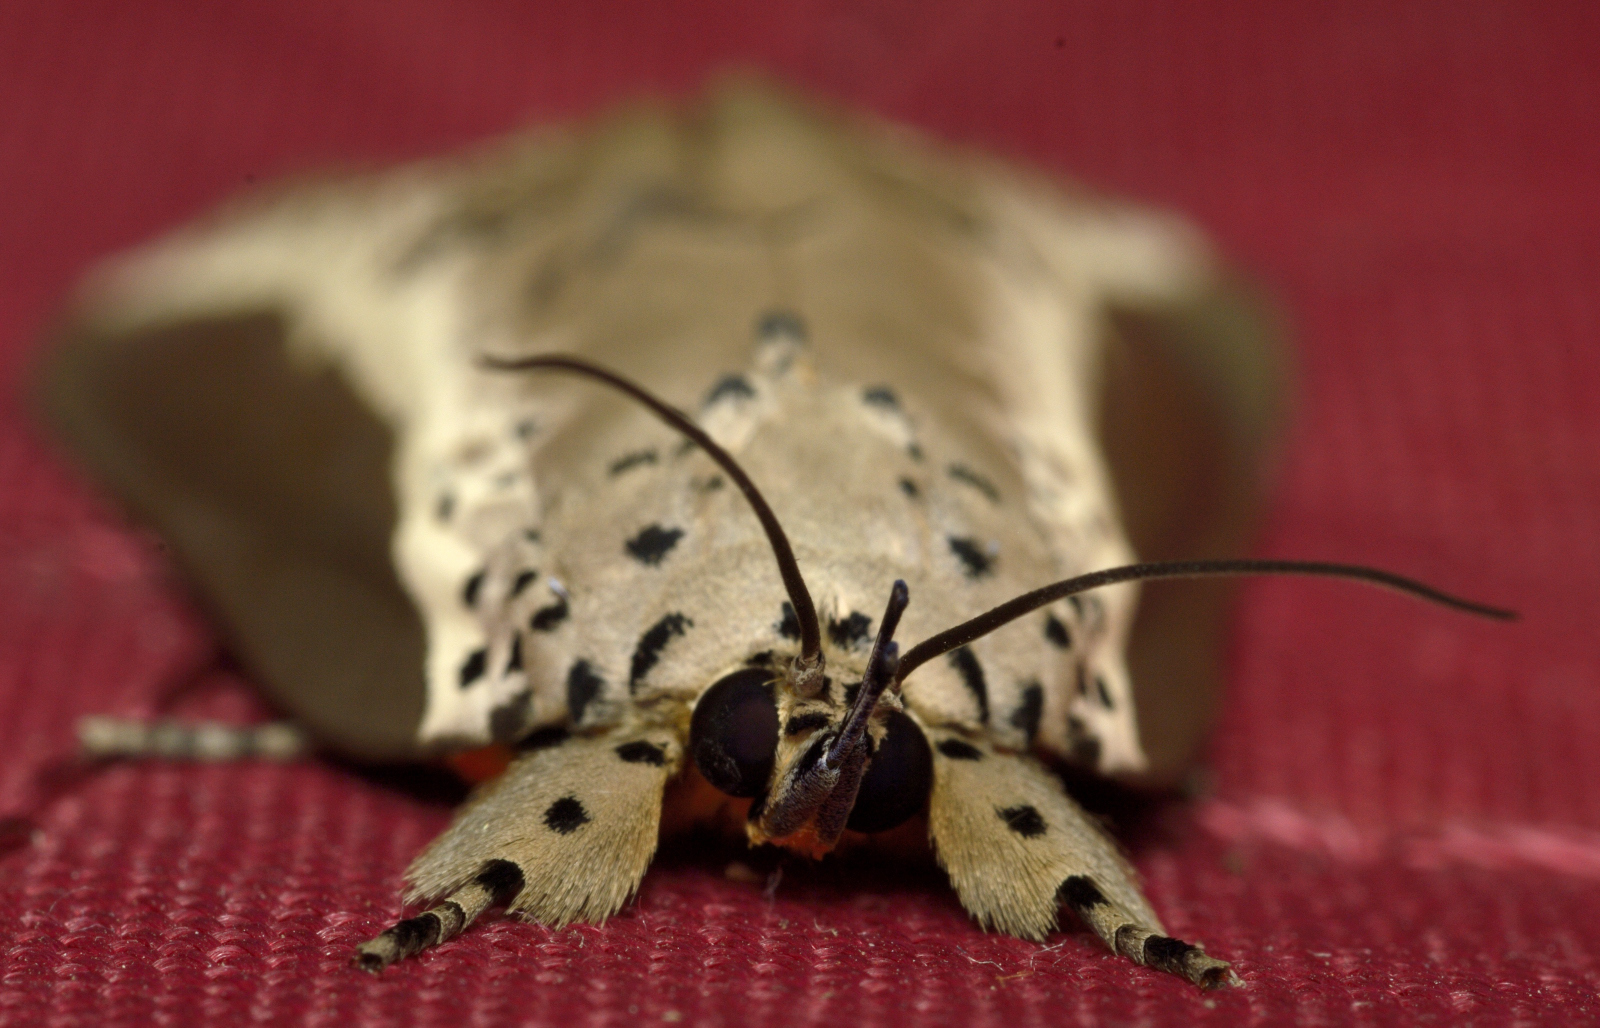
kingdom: Animalia
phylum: Arthropoda
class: Insecta
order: Lepidoptera
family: Nolidae
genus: Eligma
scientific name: Eligma narcissus
